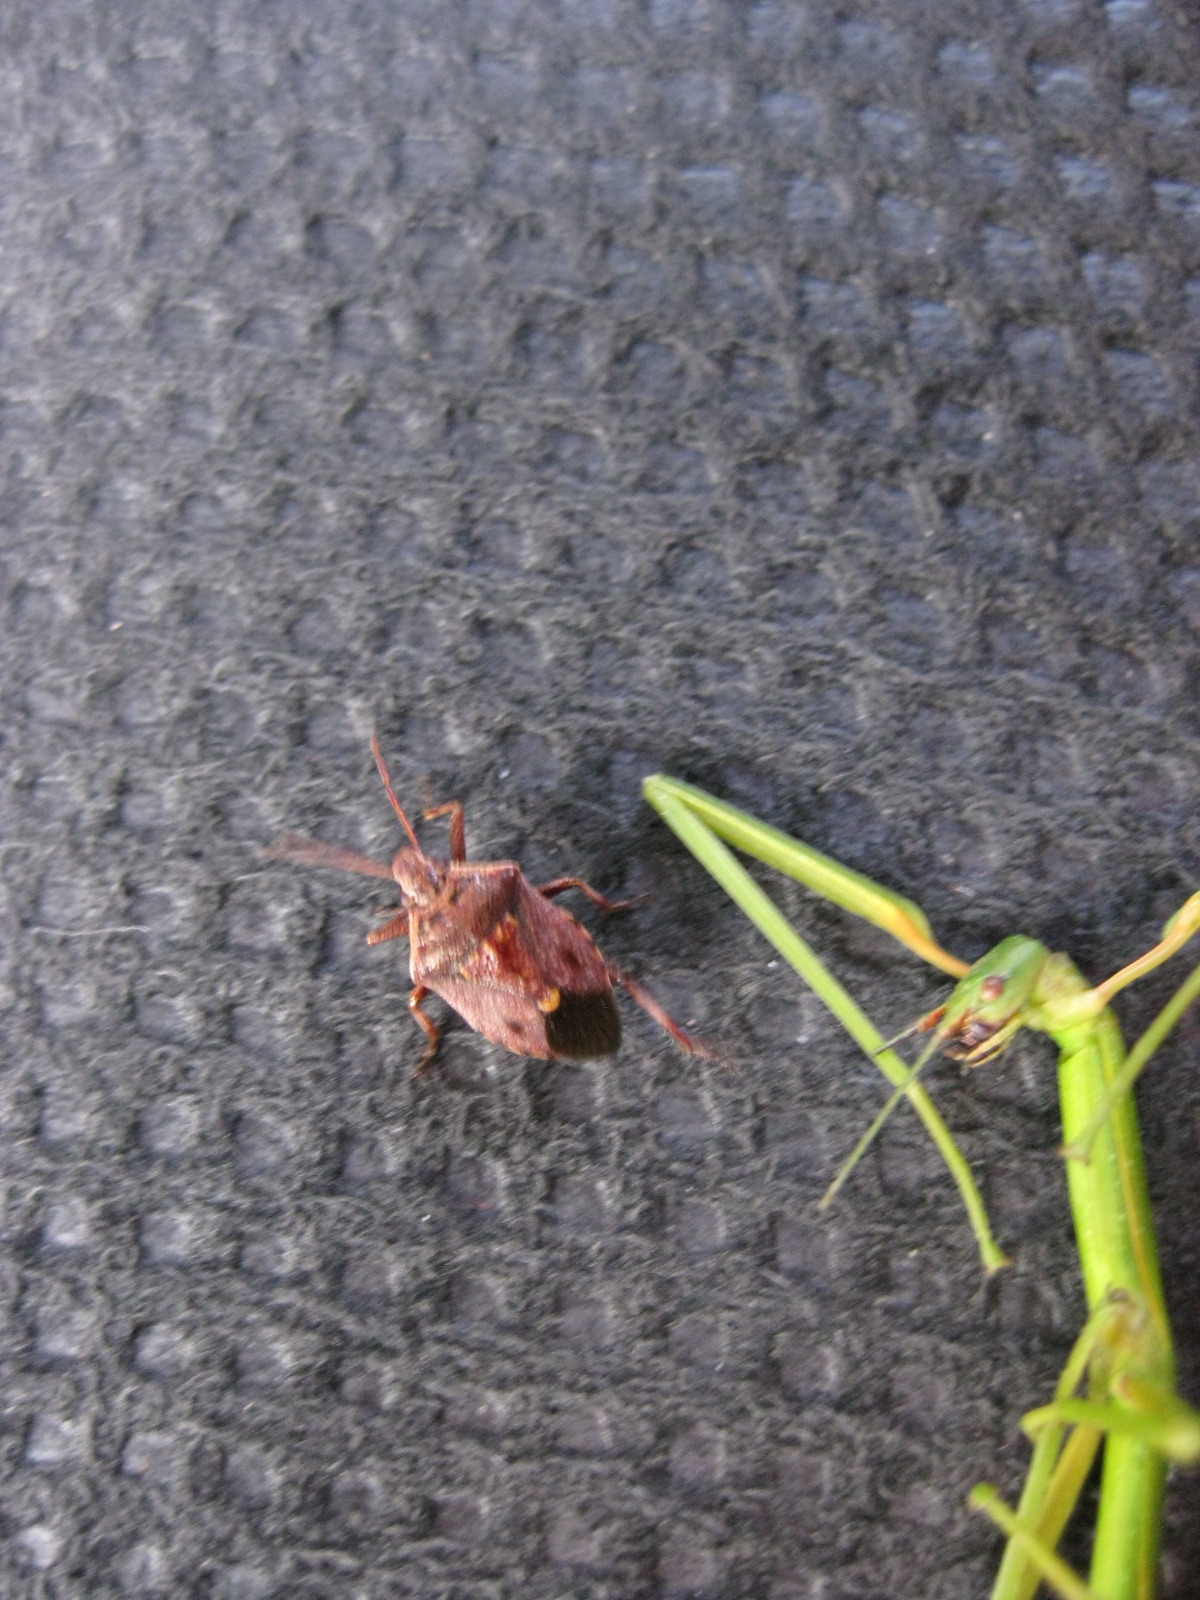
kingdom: Animalia
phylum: Arthropoda
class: Insecta
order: Hemiptera
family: Pentatomidae
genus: Cermatulus
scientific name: Cermatulus nasalis
